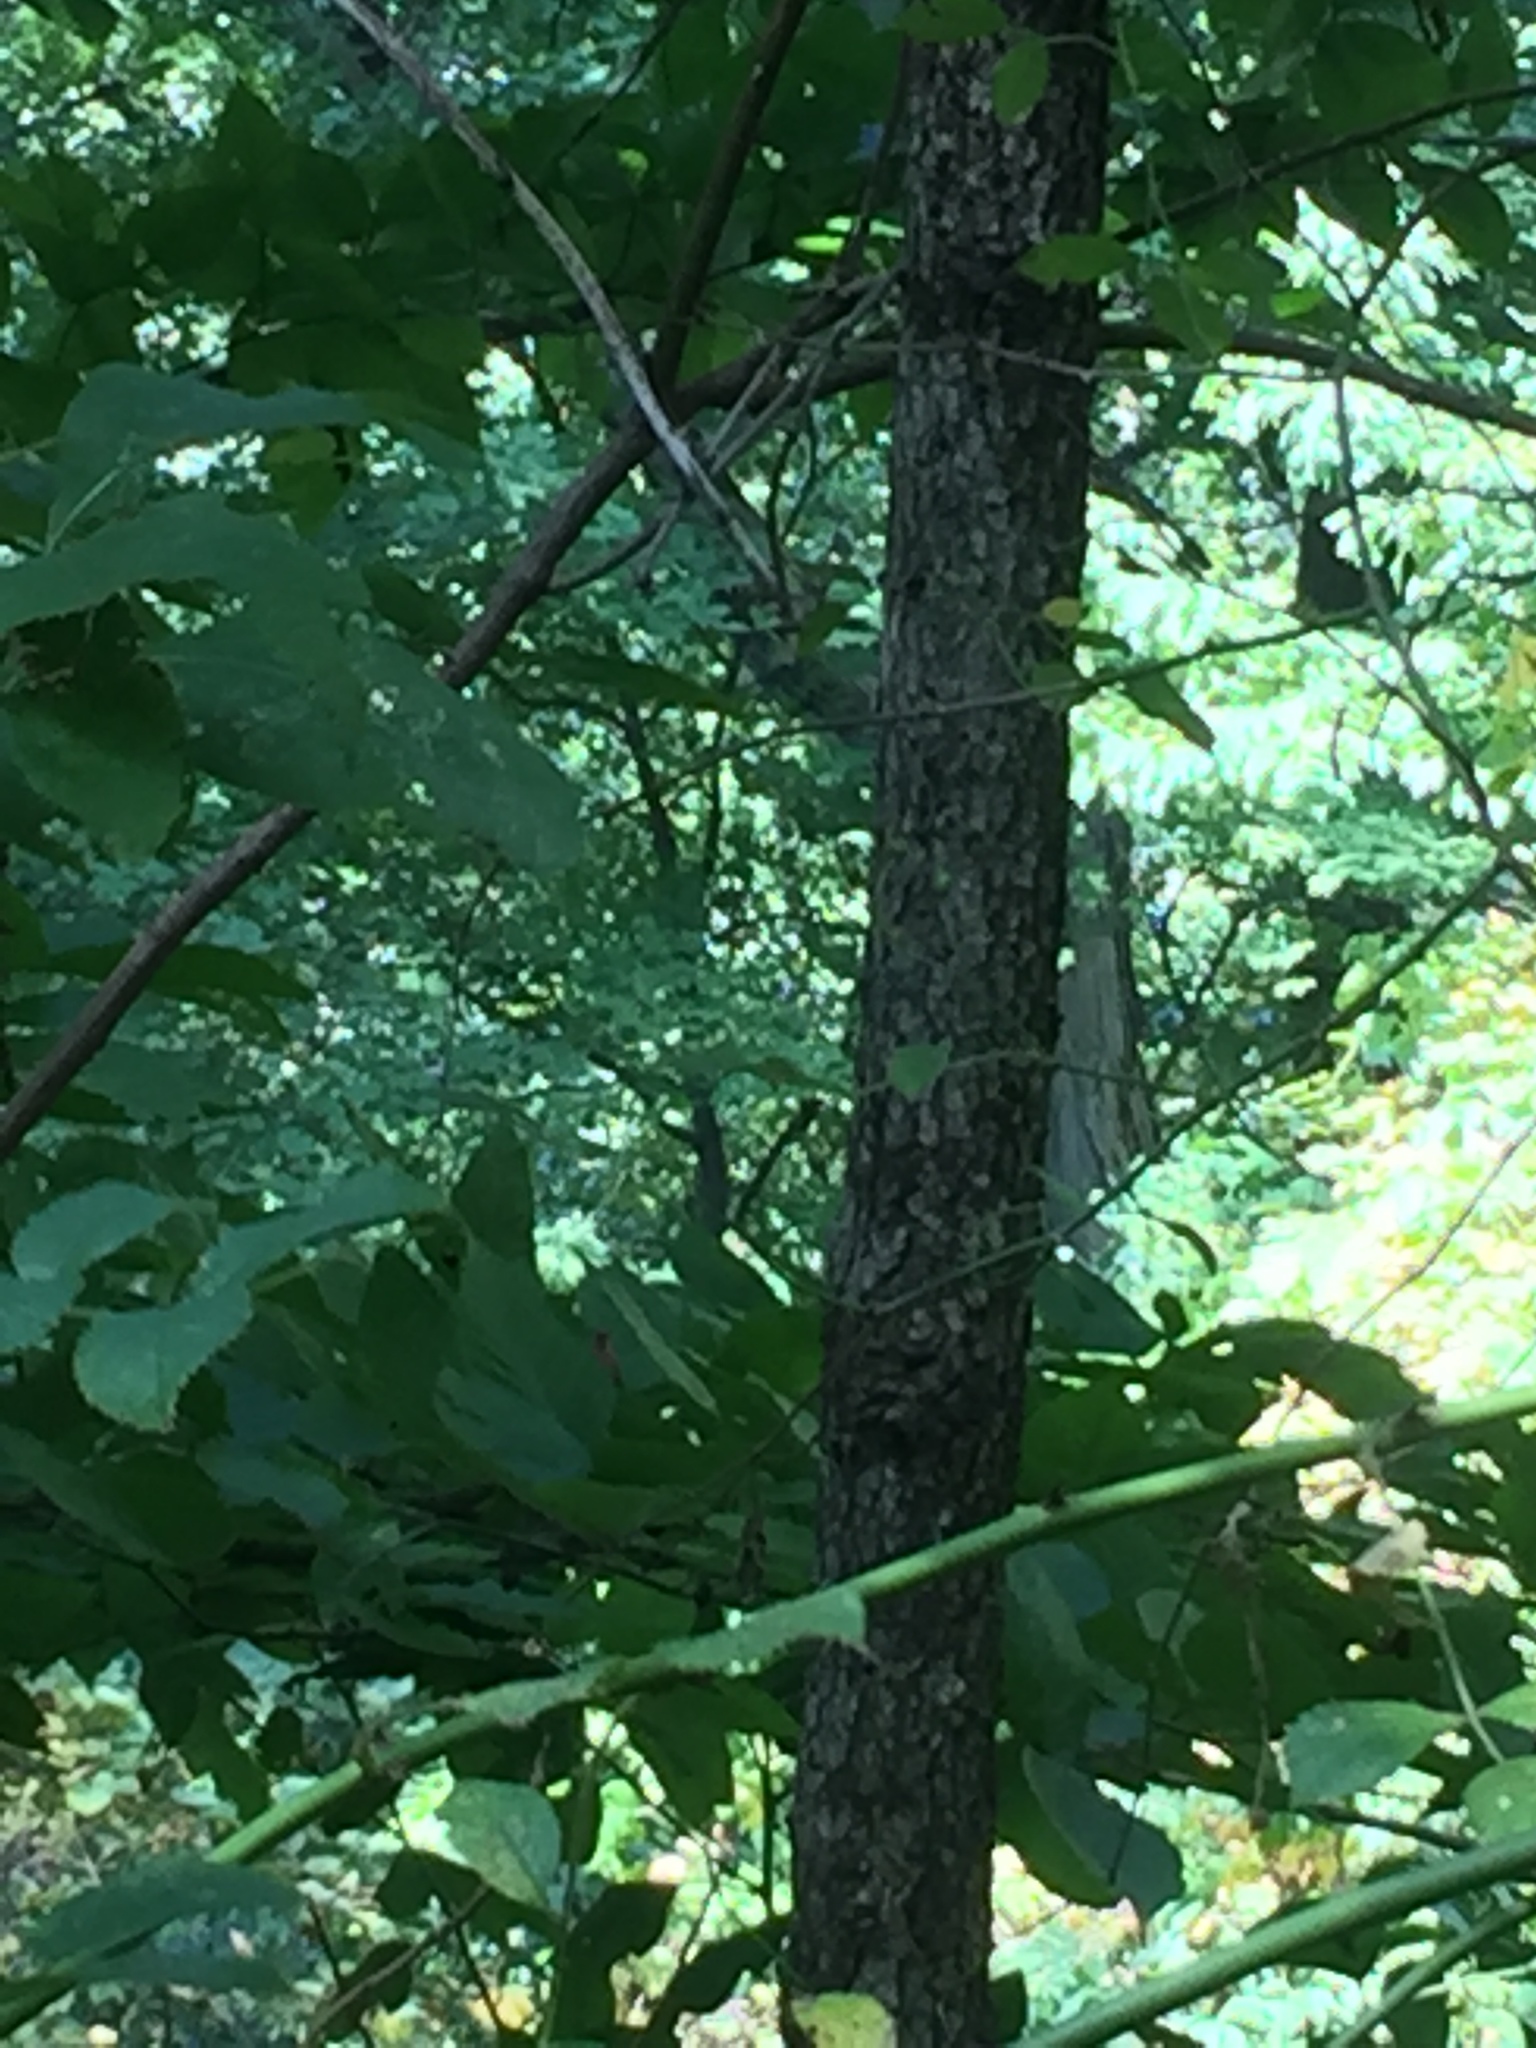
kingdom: Plantae
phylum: Tracheophyta
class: Magnoliopsida
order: Cornales
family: Cornaceae
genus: Cornus
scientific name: Cornus florida
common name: Flowering dogwood
